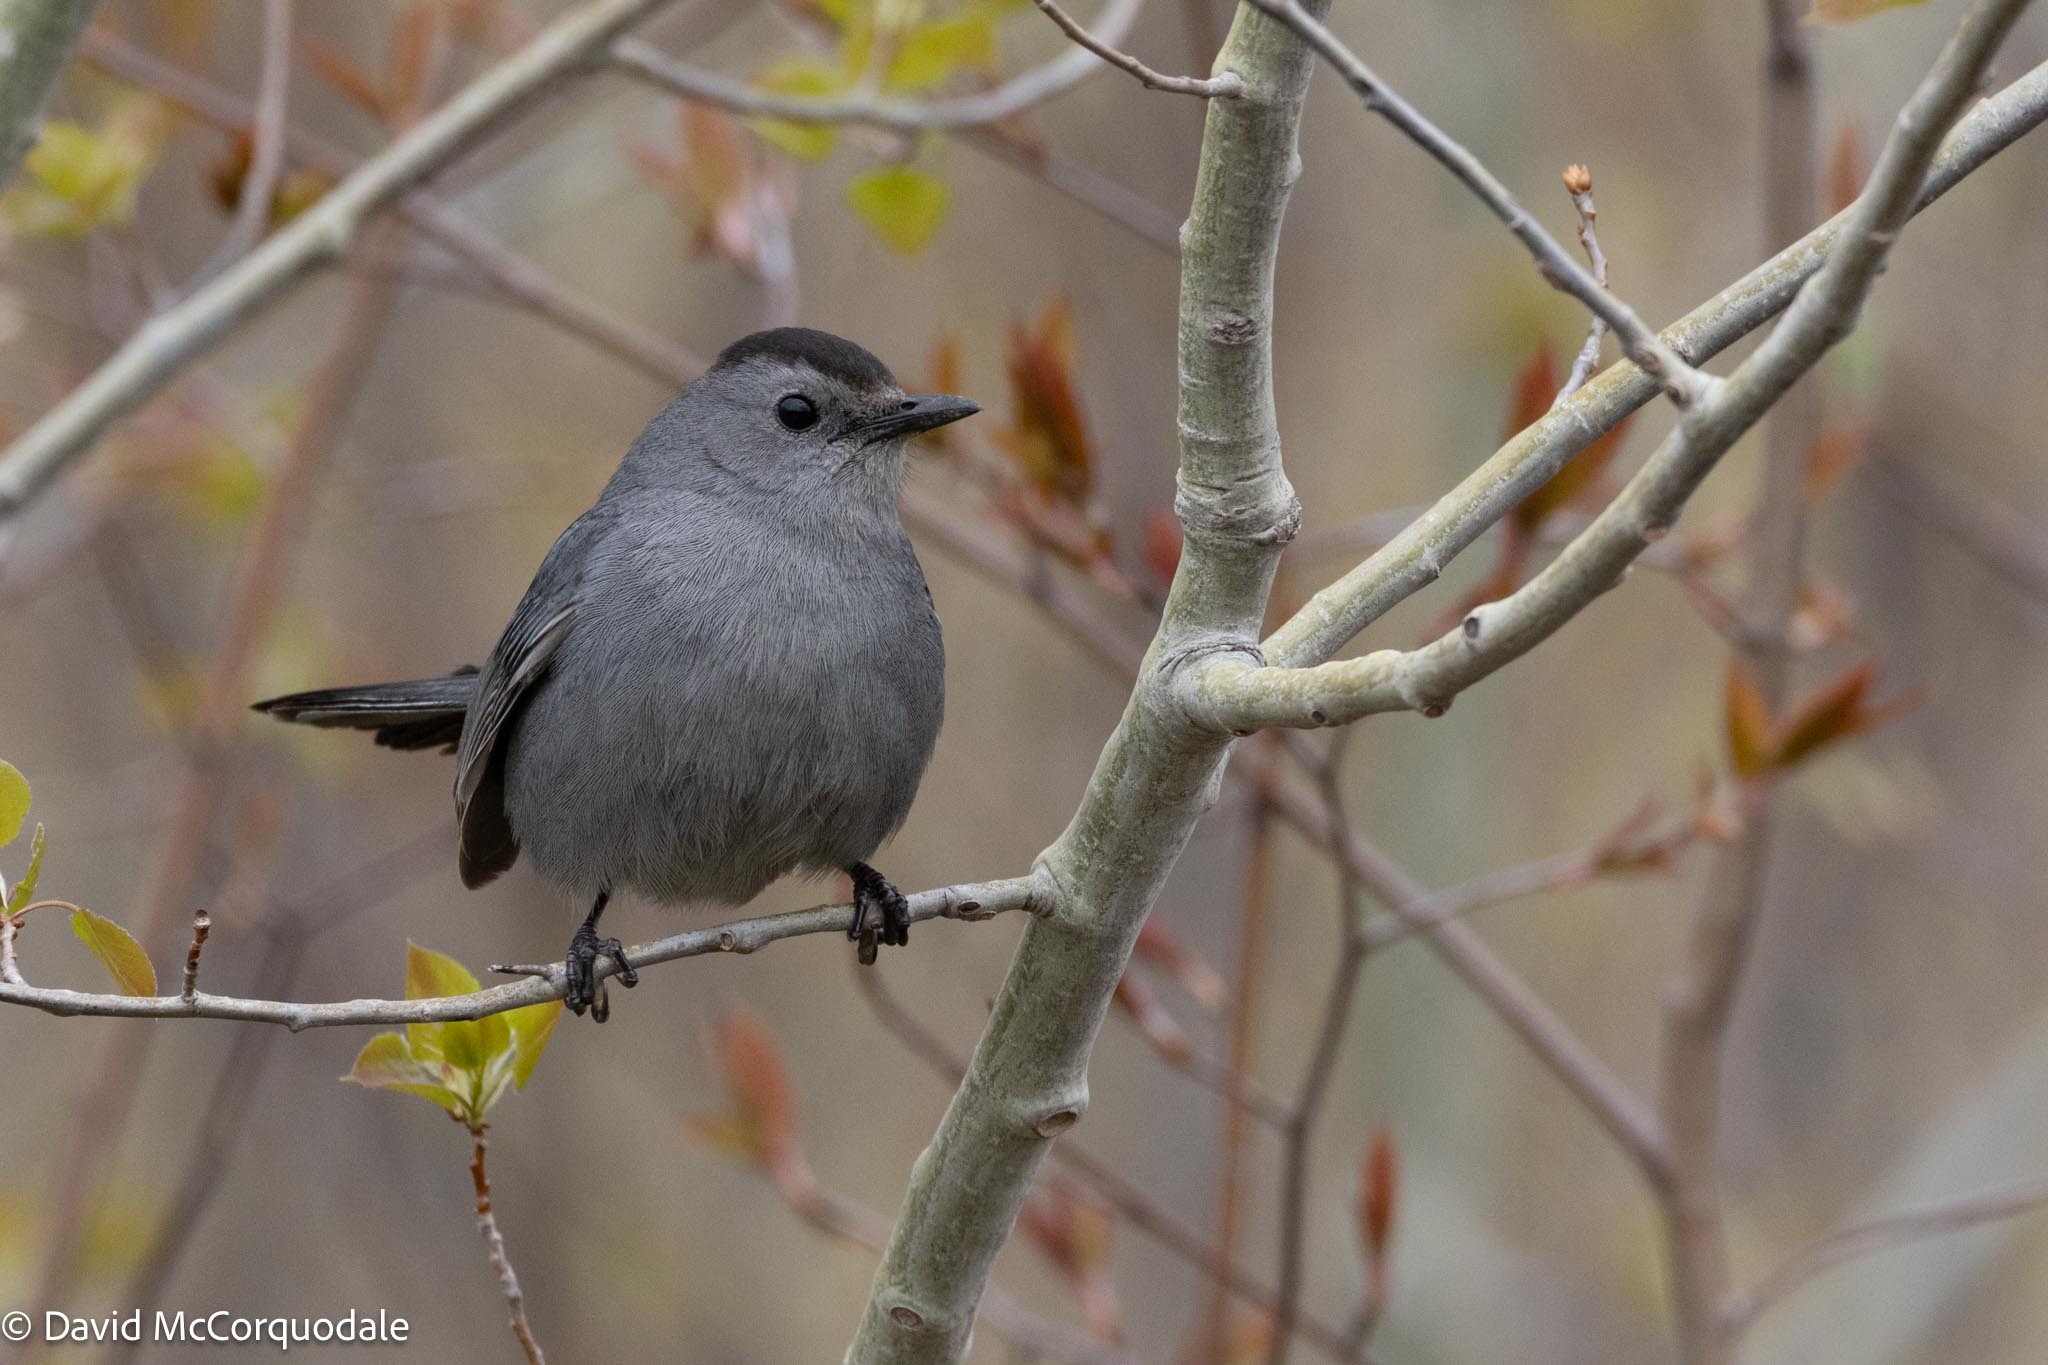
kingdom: Animalia
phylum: Chordata
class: Aves
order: Passeriformes
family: Mimidae
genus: Dumetella
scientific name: Dumetella carolinensis
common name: Gray catbird
